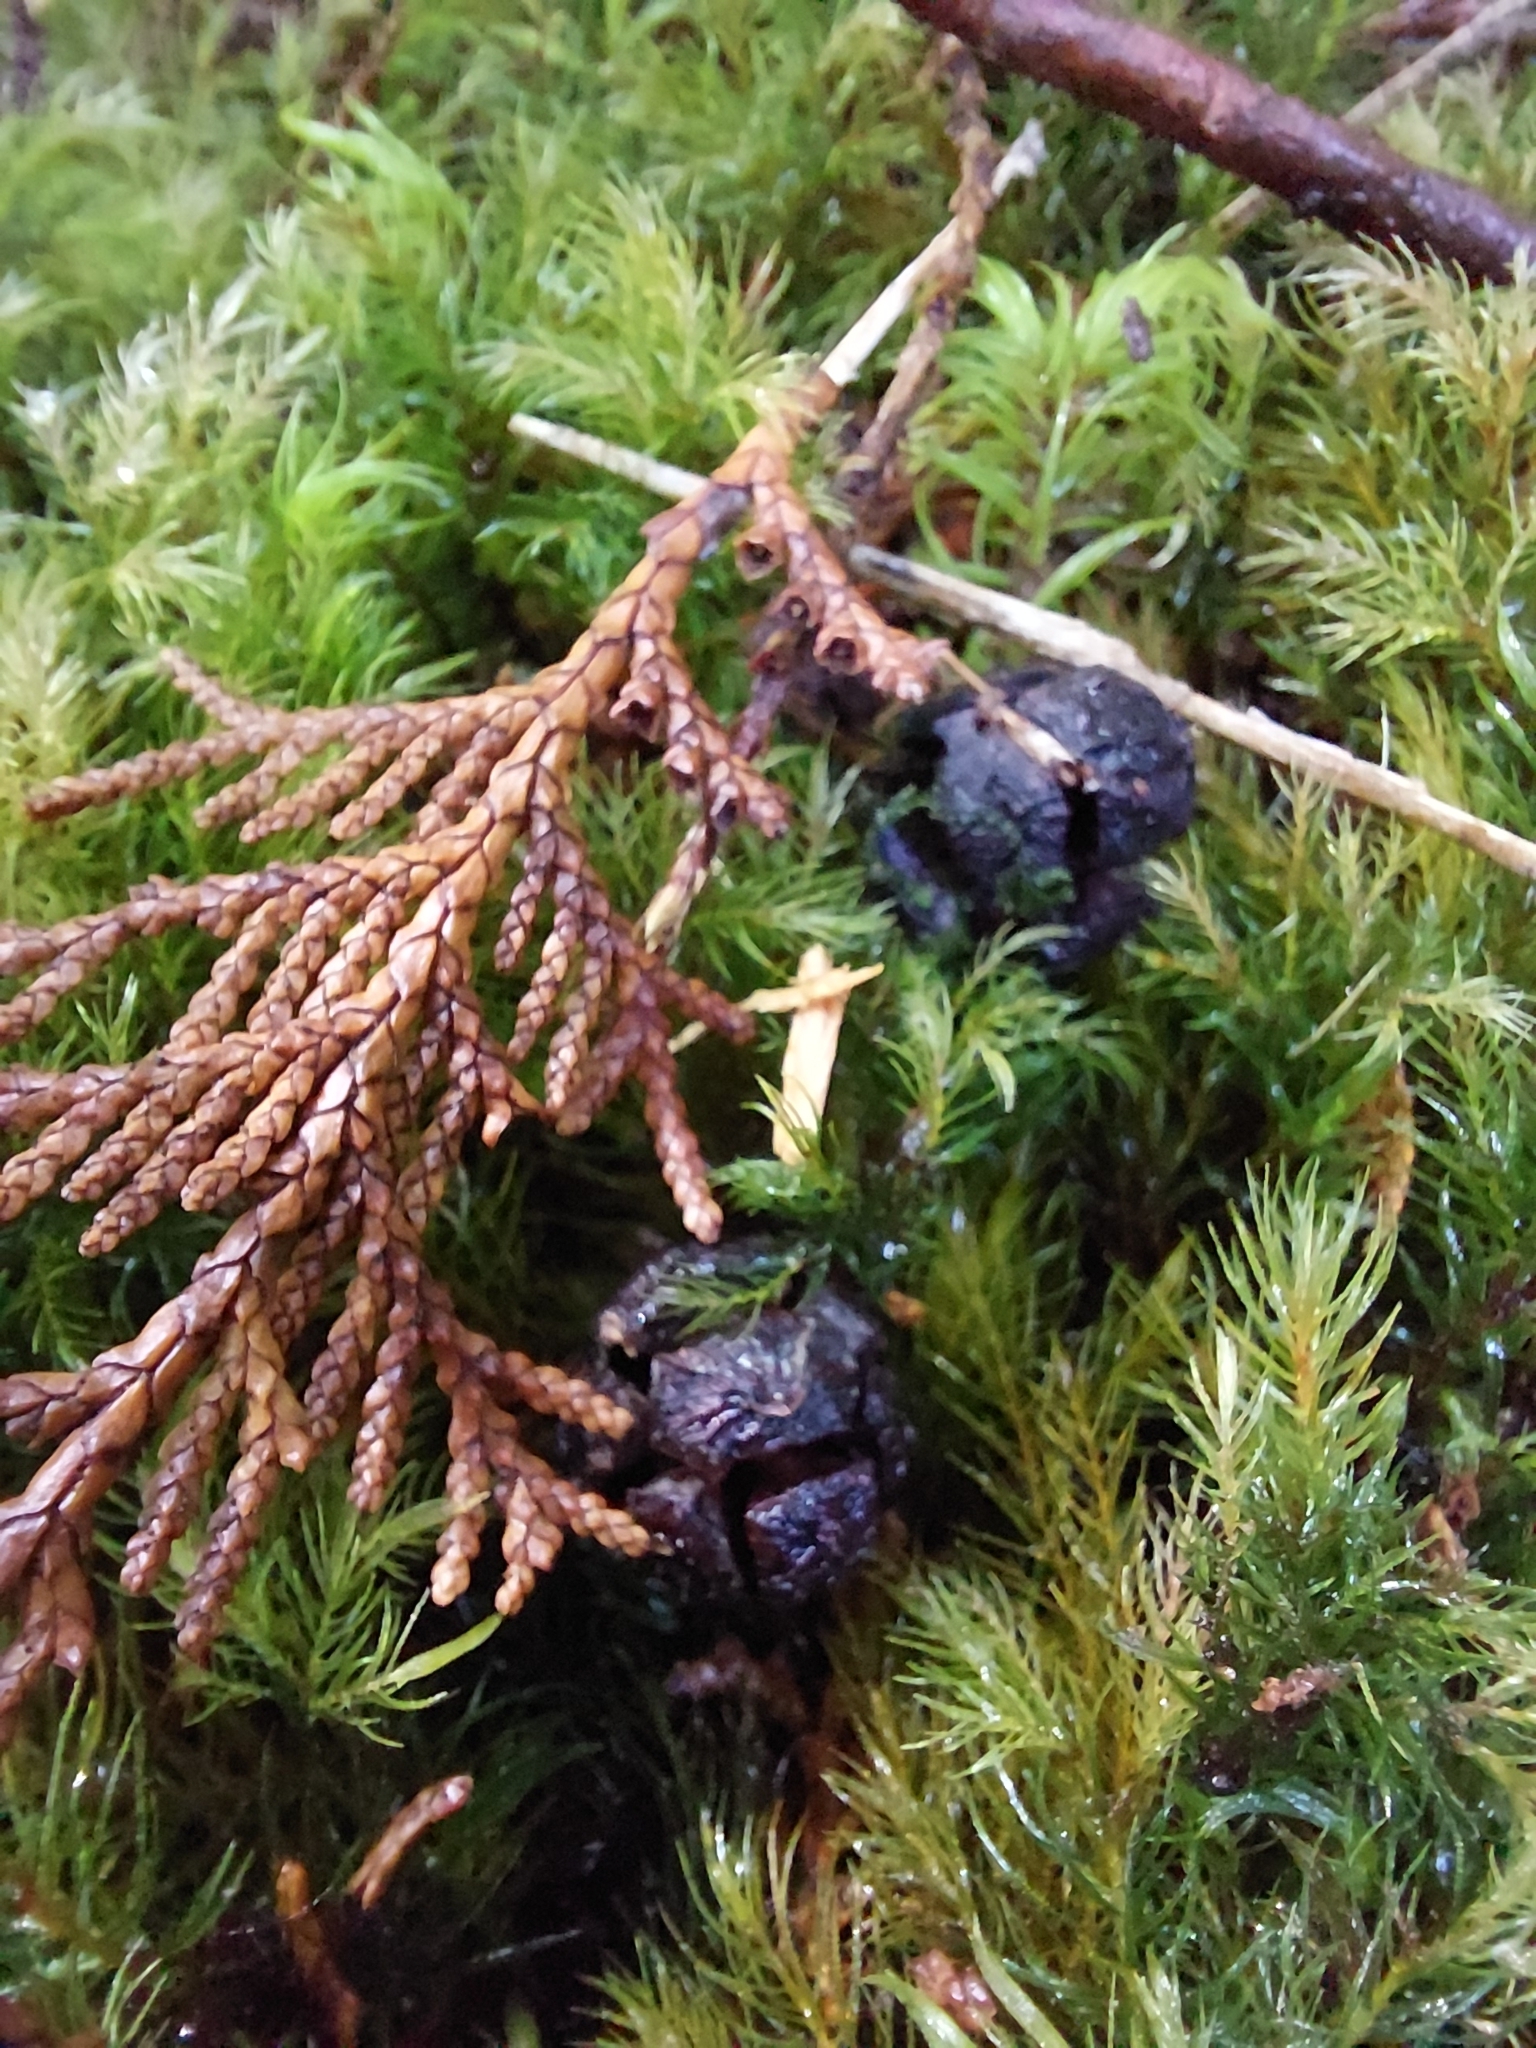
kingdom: Plantae
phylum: Tracheophyta
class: Pinopsida
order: Pinales
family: Cupressaceae
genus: Chamaecyparis
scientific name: Chamaecyparis obtusa
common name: Hinoki false cypress
